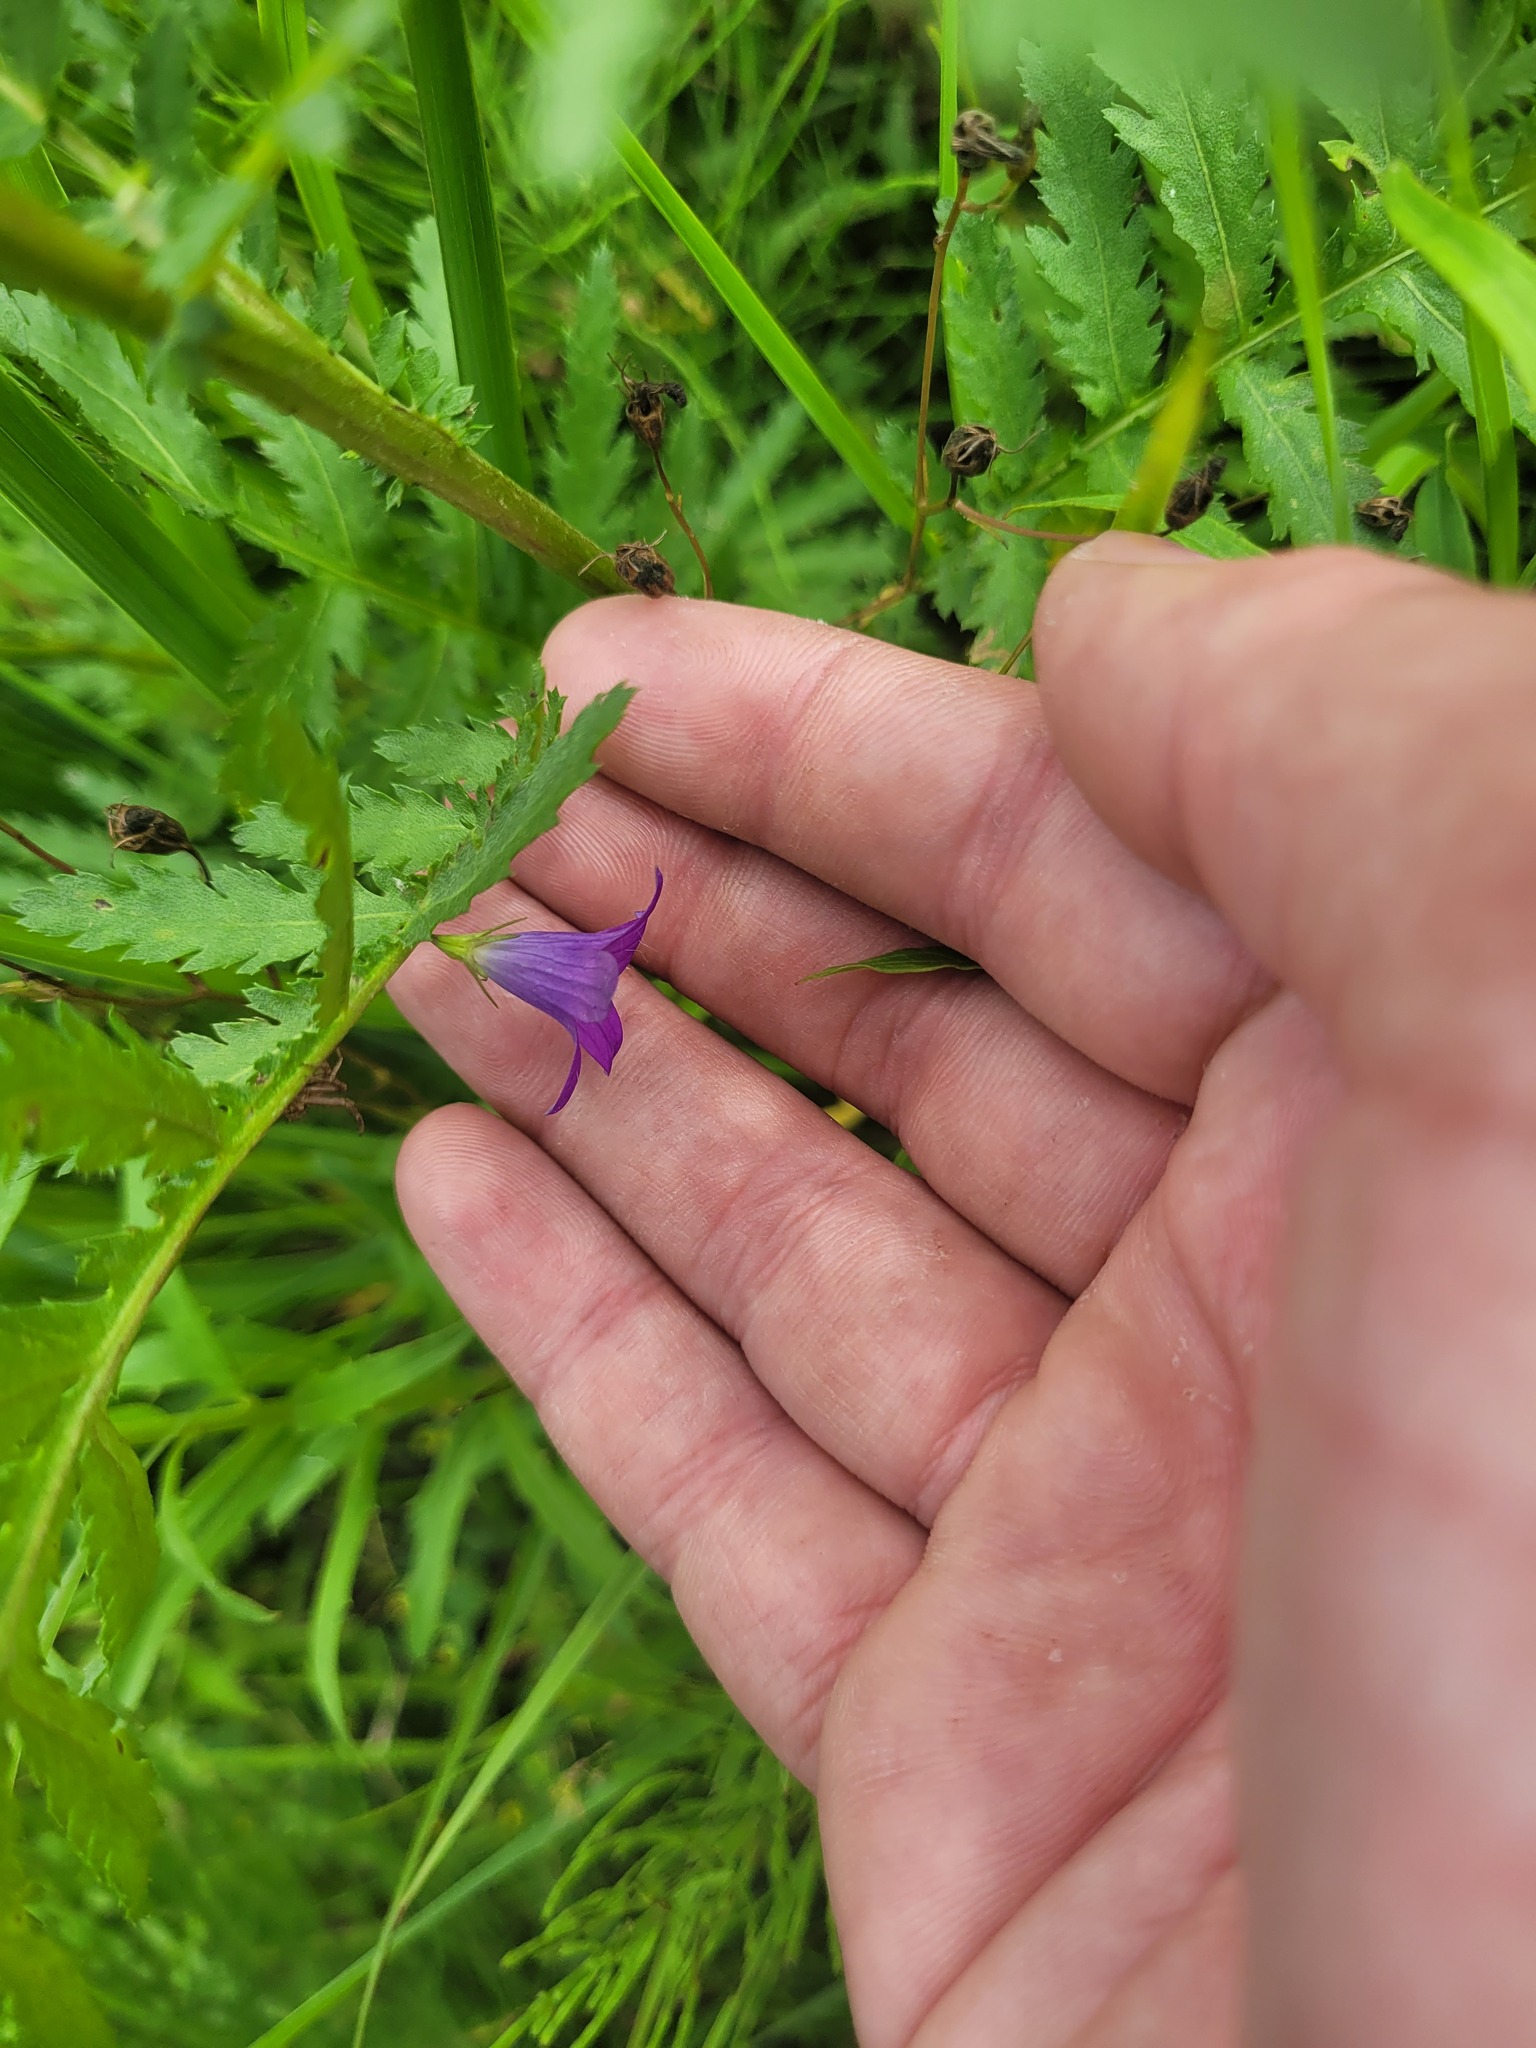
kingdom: Plantae
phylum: Tracheophyta
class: Magnoliopsida
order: Asterales
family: Campanulaceae
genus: Campanula
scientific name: Campanula patula
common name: Spreading bellflower
